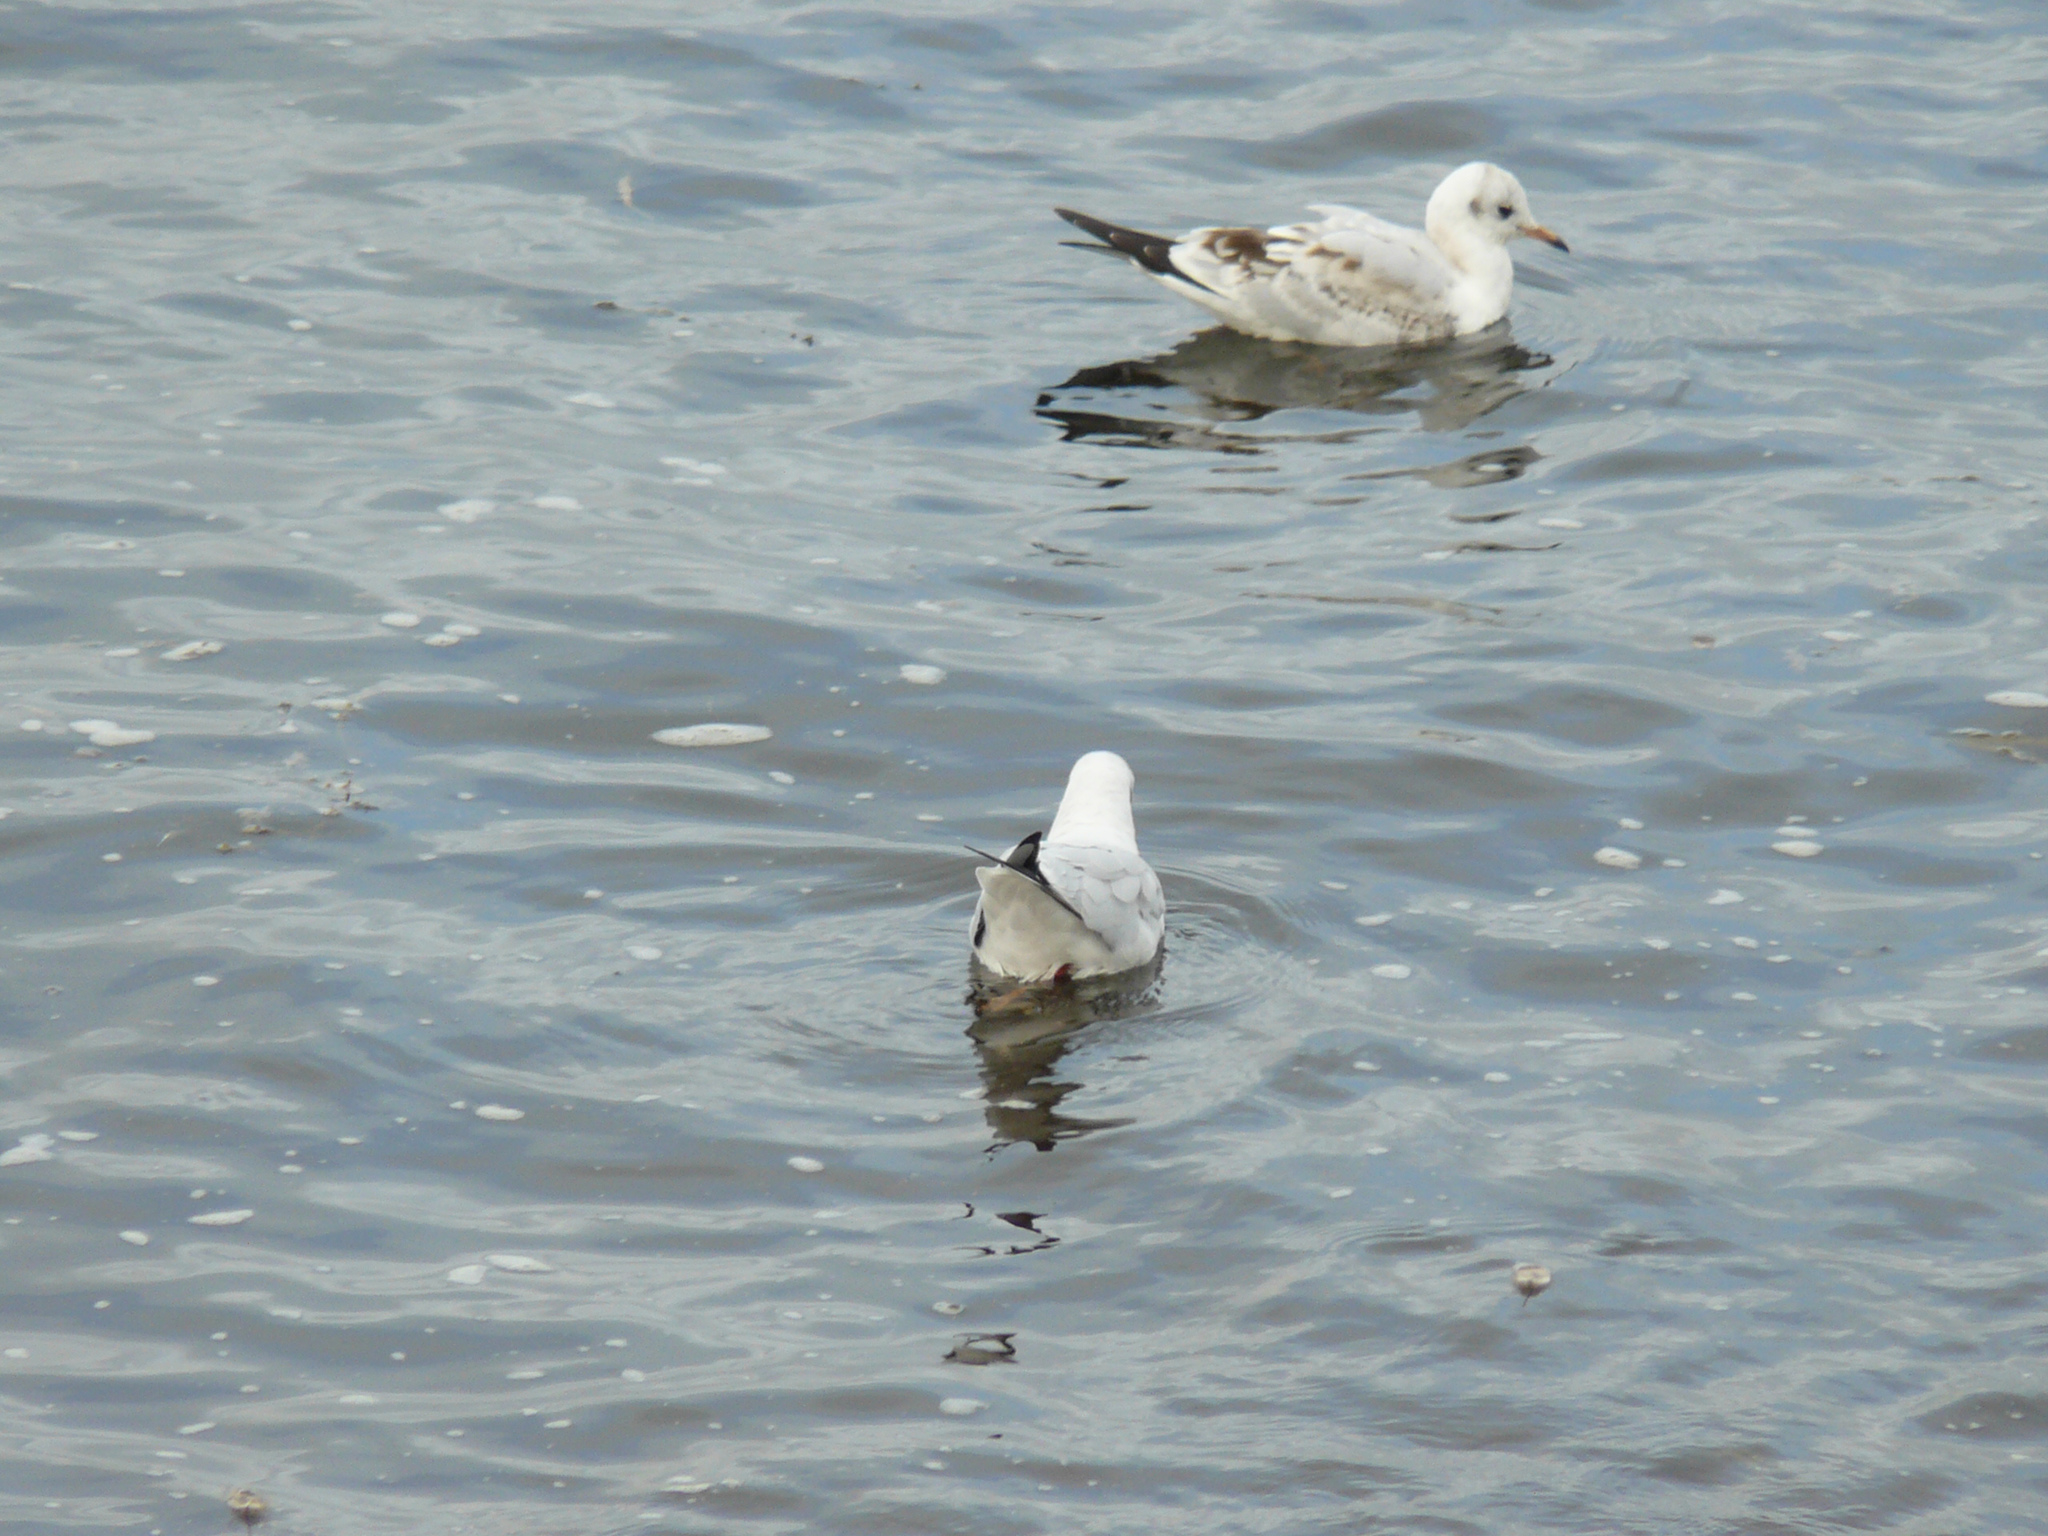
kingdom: Animalia
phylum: Chordata
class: Aves
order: Charadriiformes
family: Laridae
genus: Chroicocephalus
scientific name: Chroicocephalus ridibundus
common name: Black-headed gull
